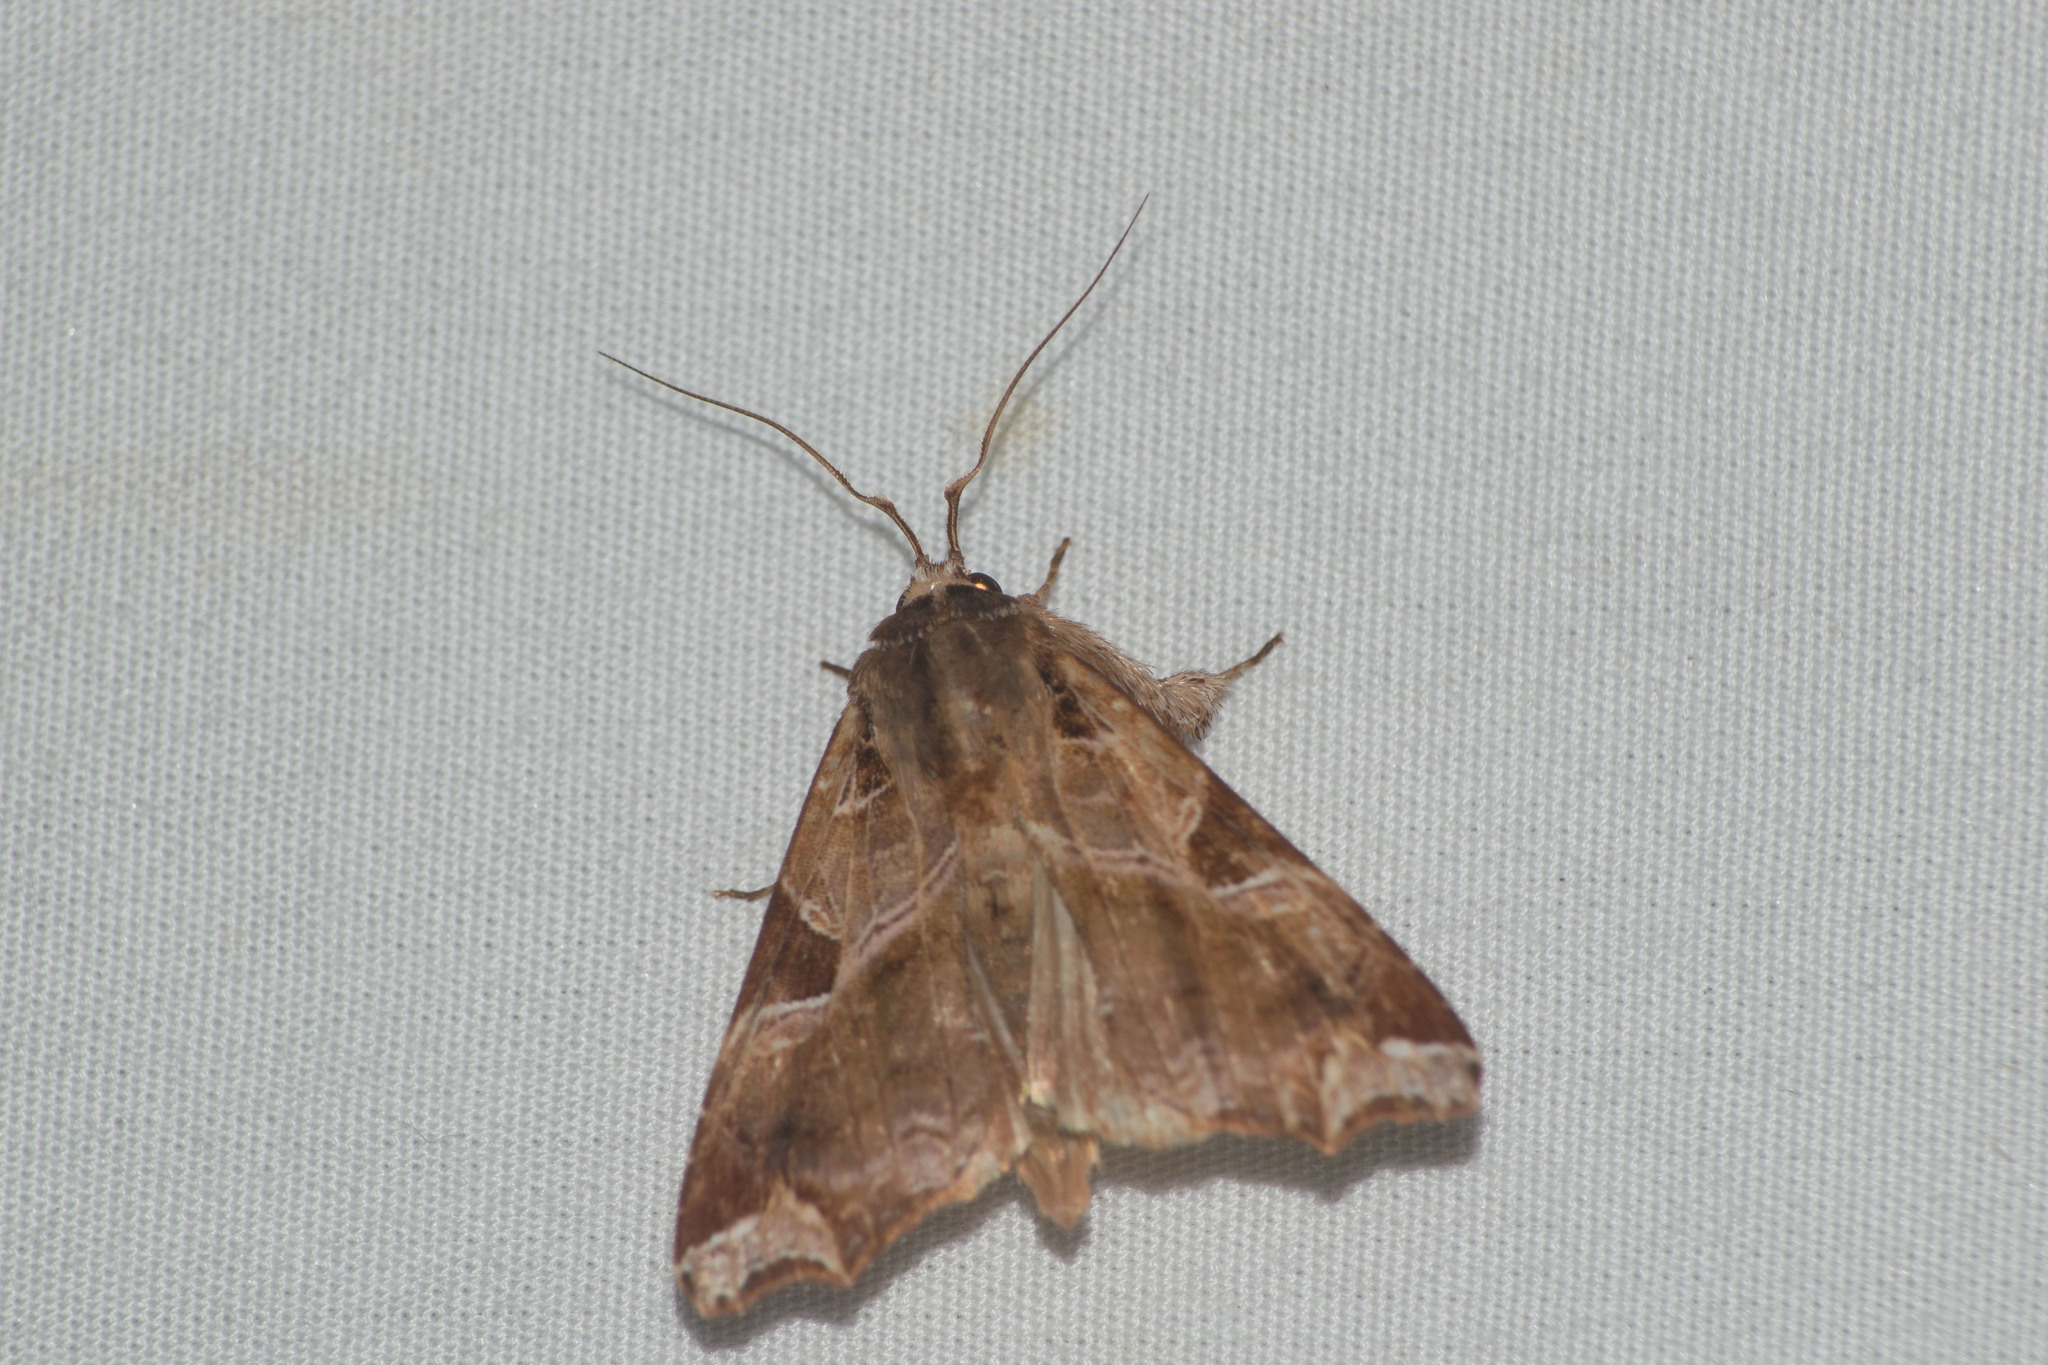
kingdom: Animalia
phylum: Arthropoda
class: Insecta
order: Lepidoptera
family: Noctuidae
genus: Callopistria
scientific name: Callopistria floridensis
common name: Florida fern moth
